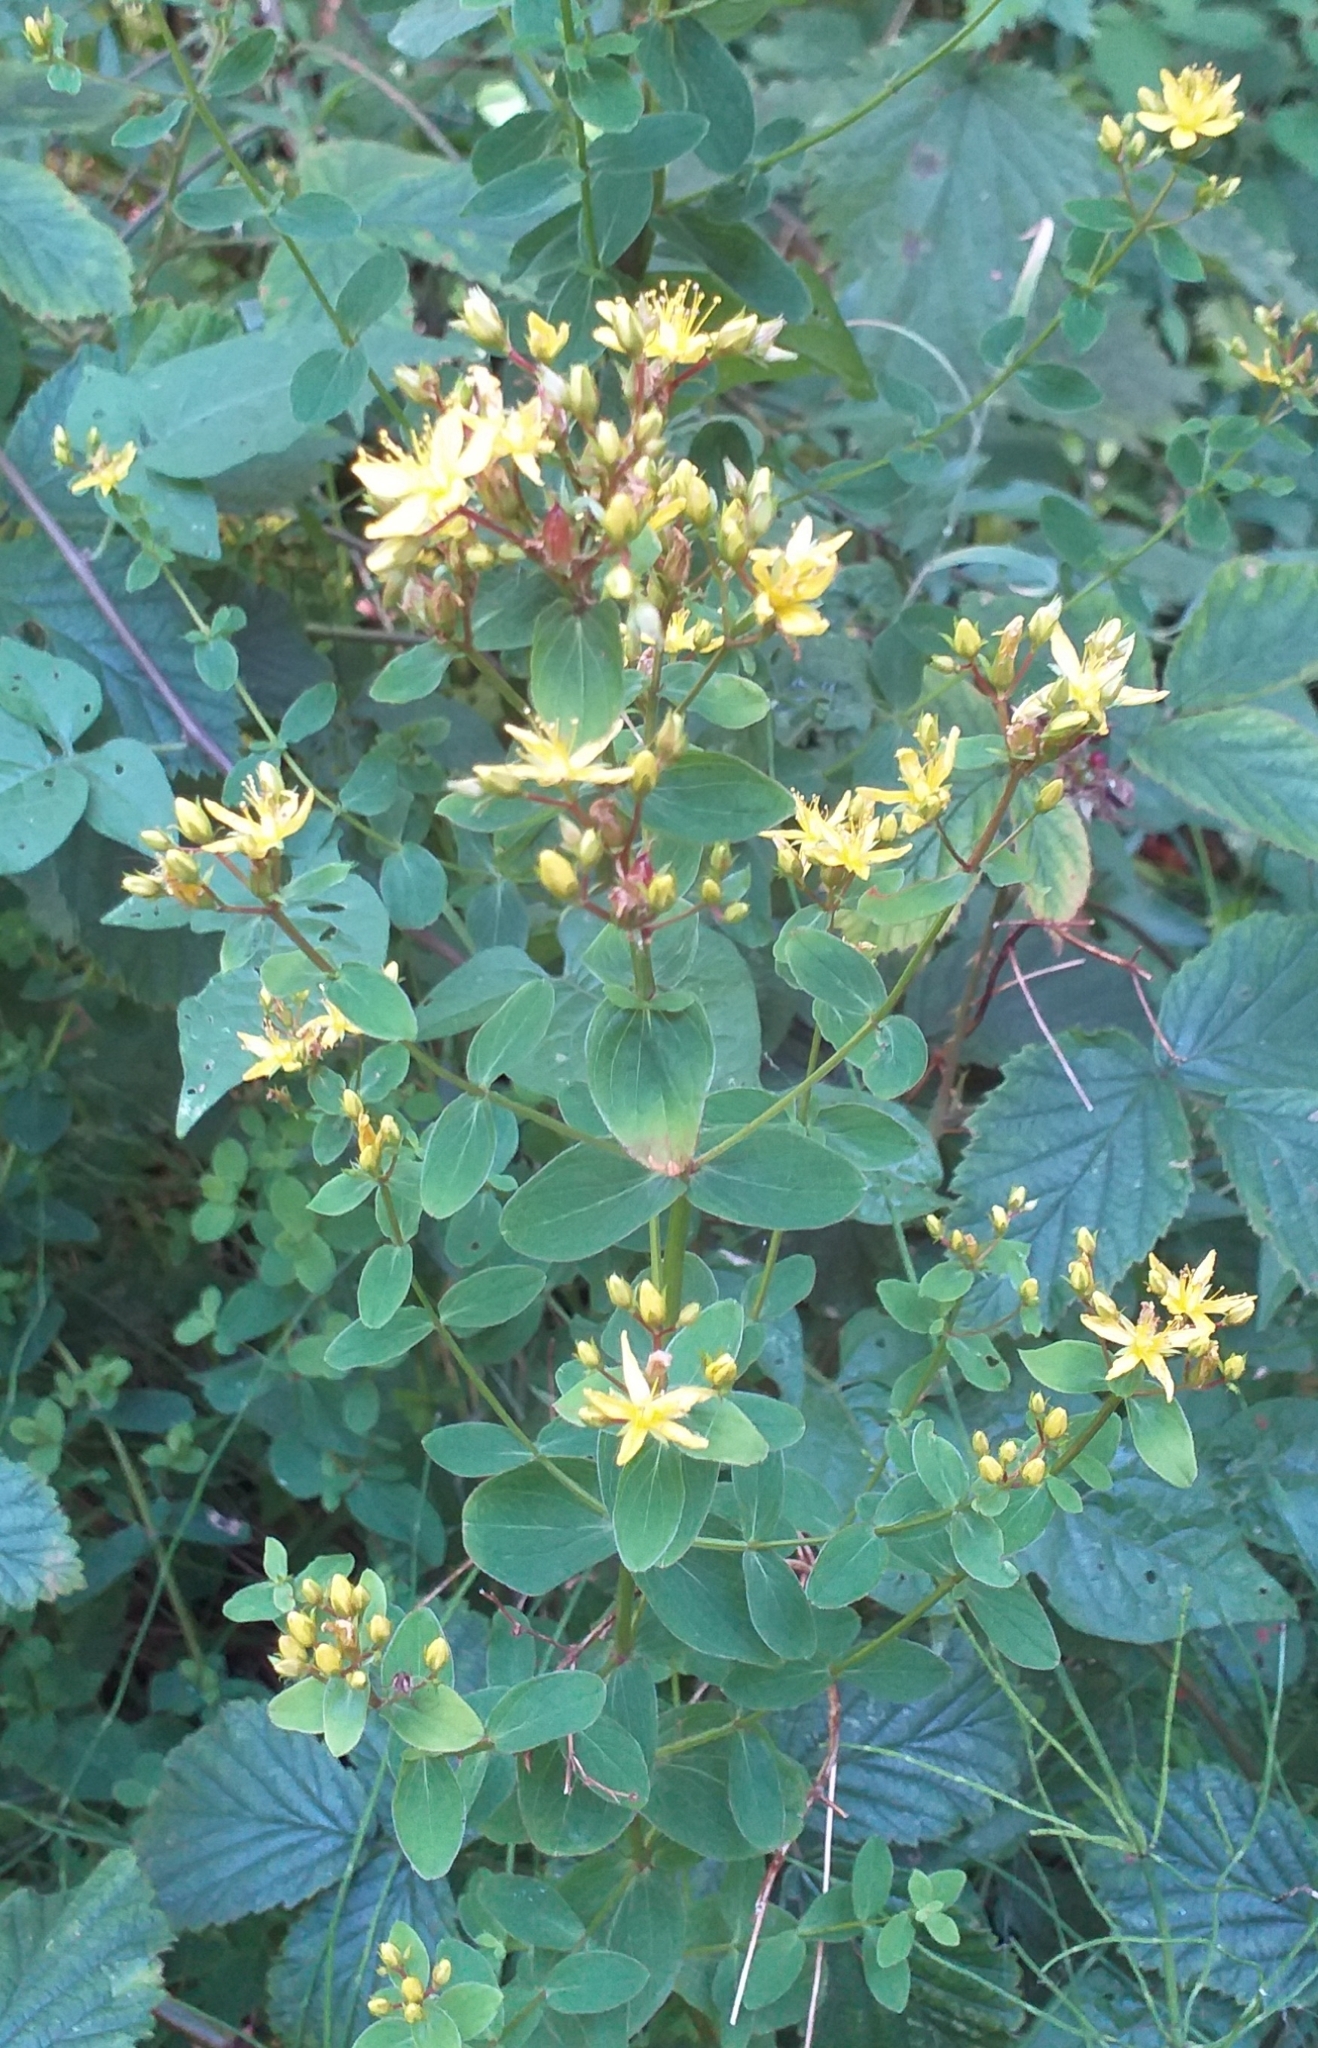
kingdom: Plantae
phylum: Tracheophyta
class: Magnoliopsida
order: Malpighiales
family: Hypericaceae
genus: Hypericum
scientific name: Hypericum tetrapterum
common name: Square-stalked st. john's-wort
